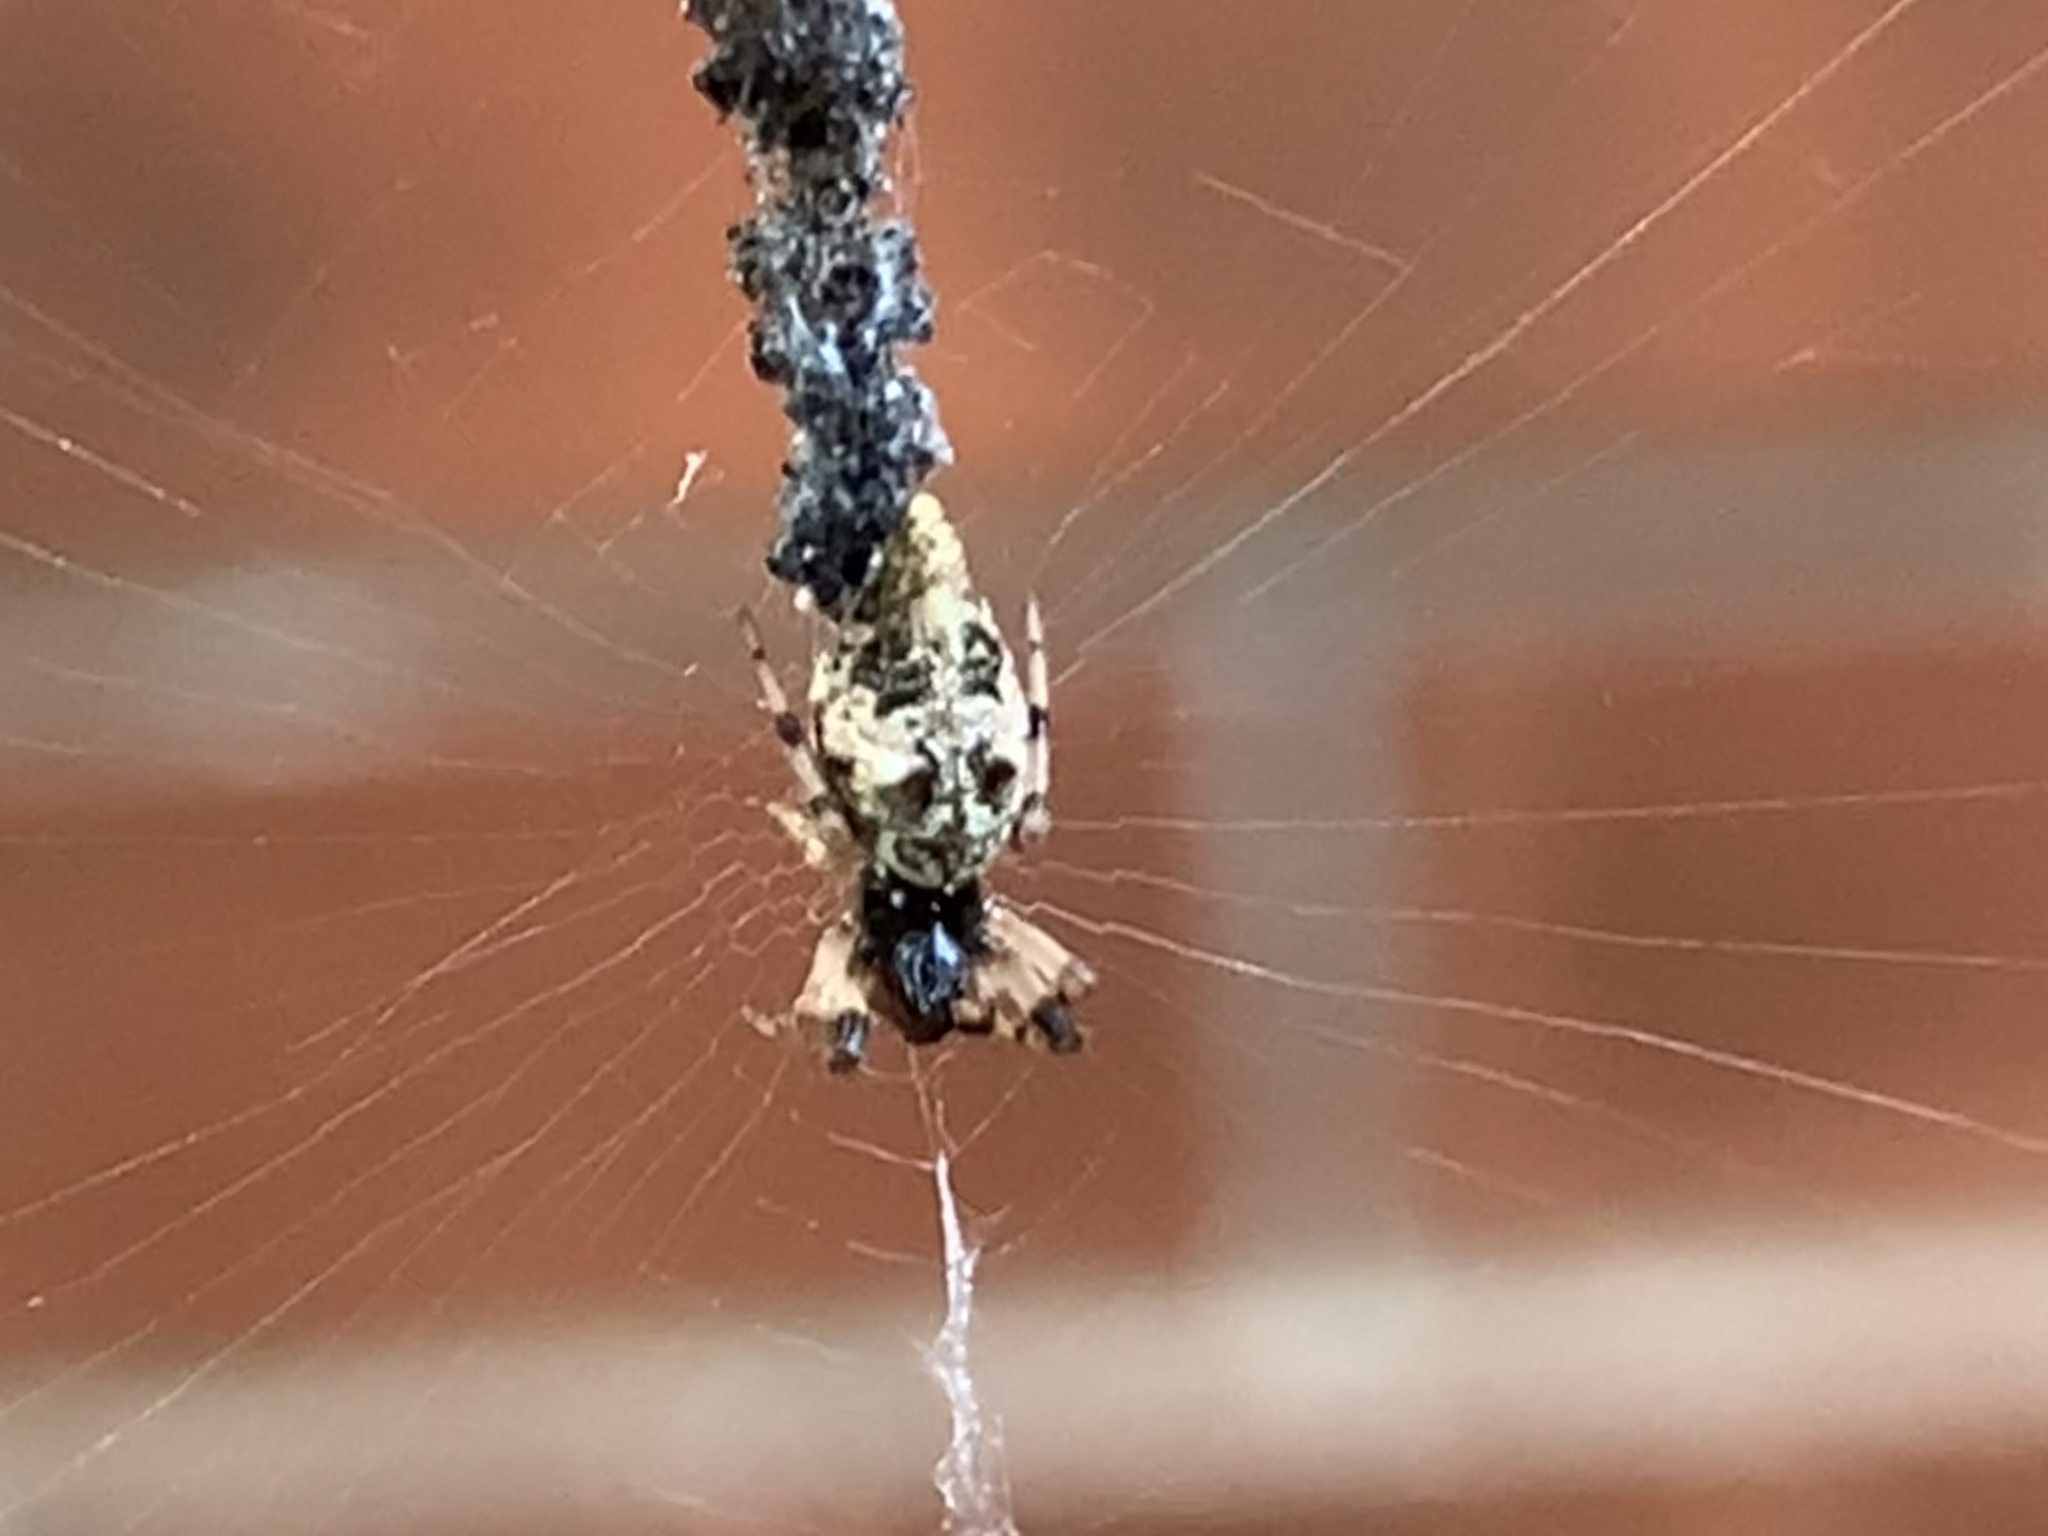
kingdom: Animalia
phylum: Arthropoda
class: Arachnida
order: Araneae
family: Araneidae
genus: Cyclosa
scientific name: Cyclosa turbinata
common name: Orb weavers
